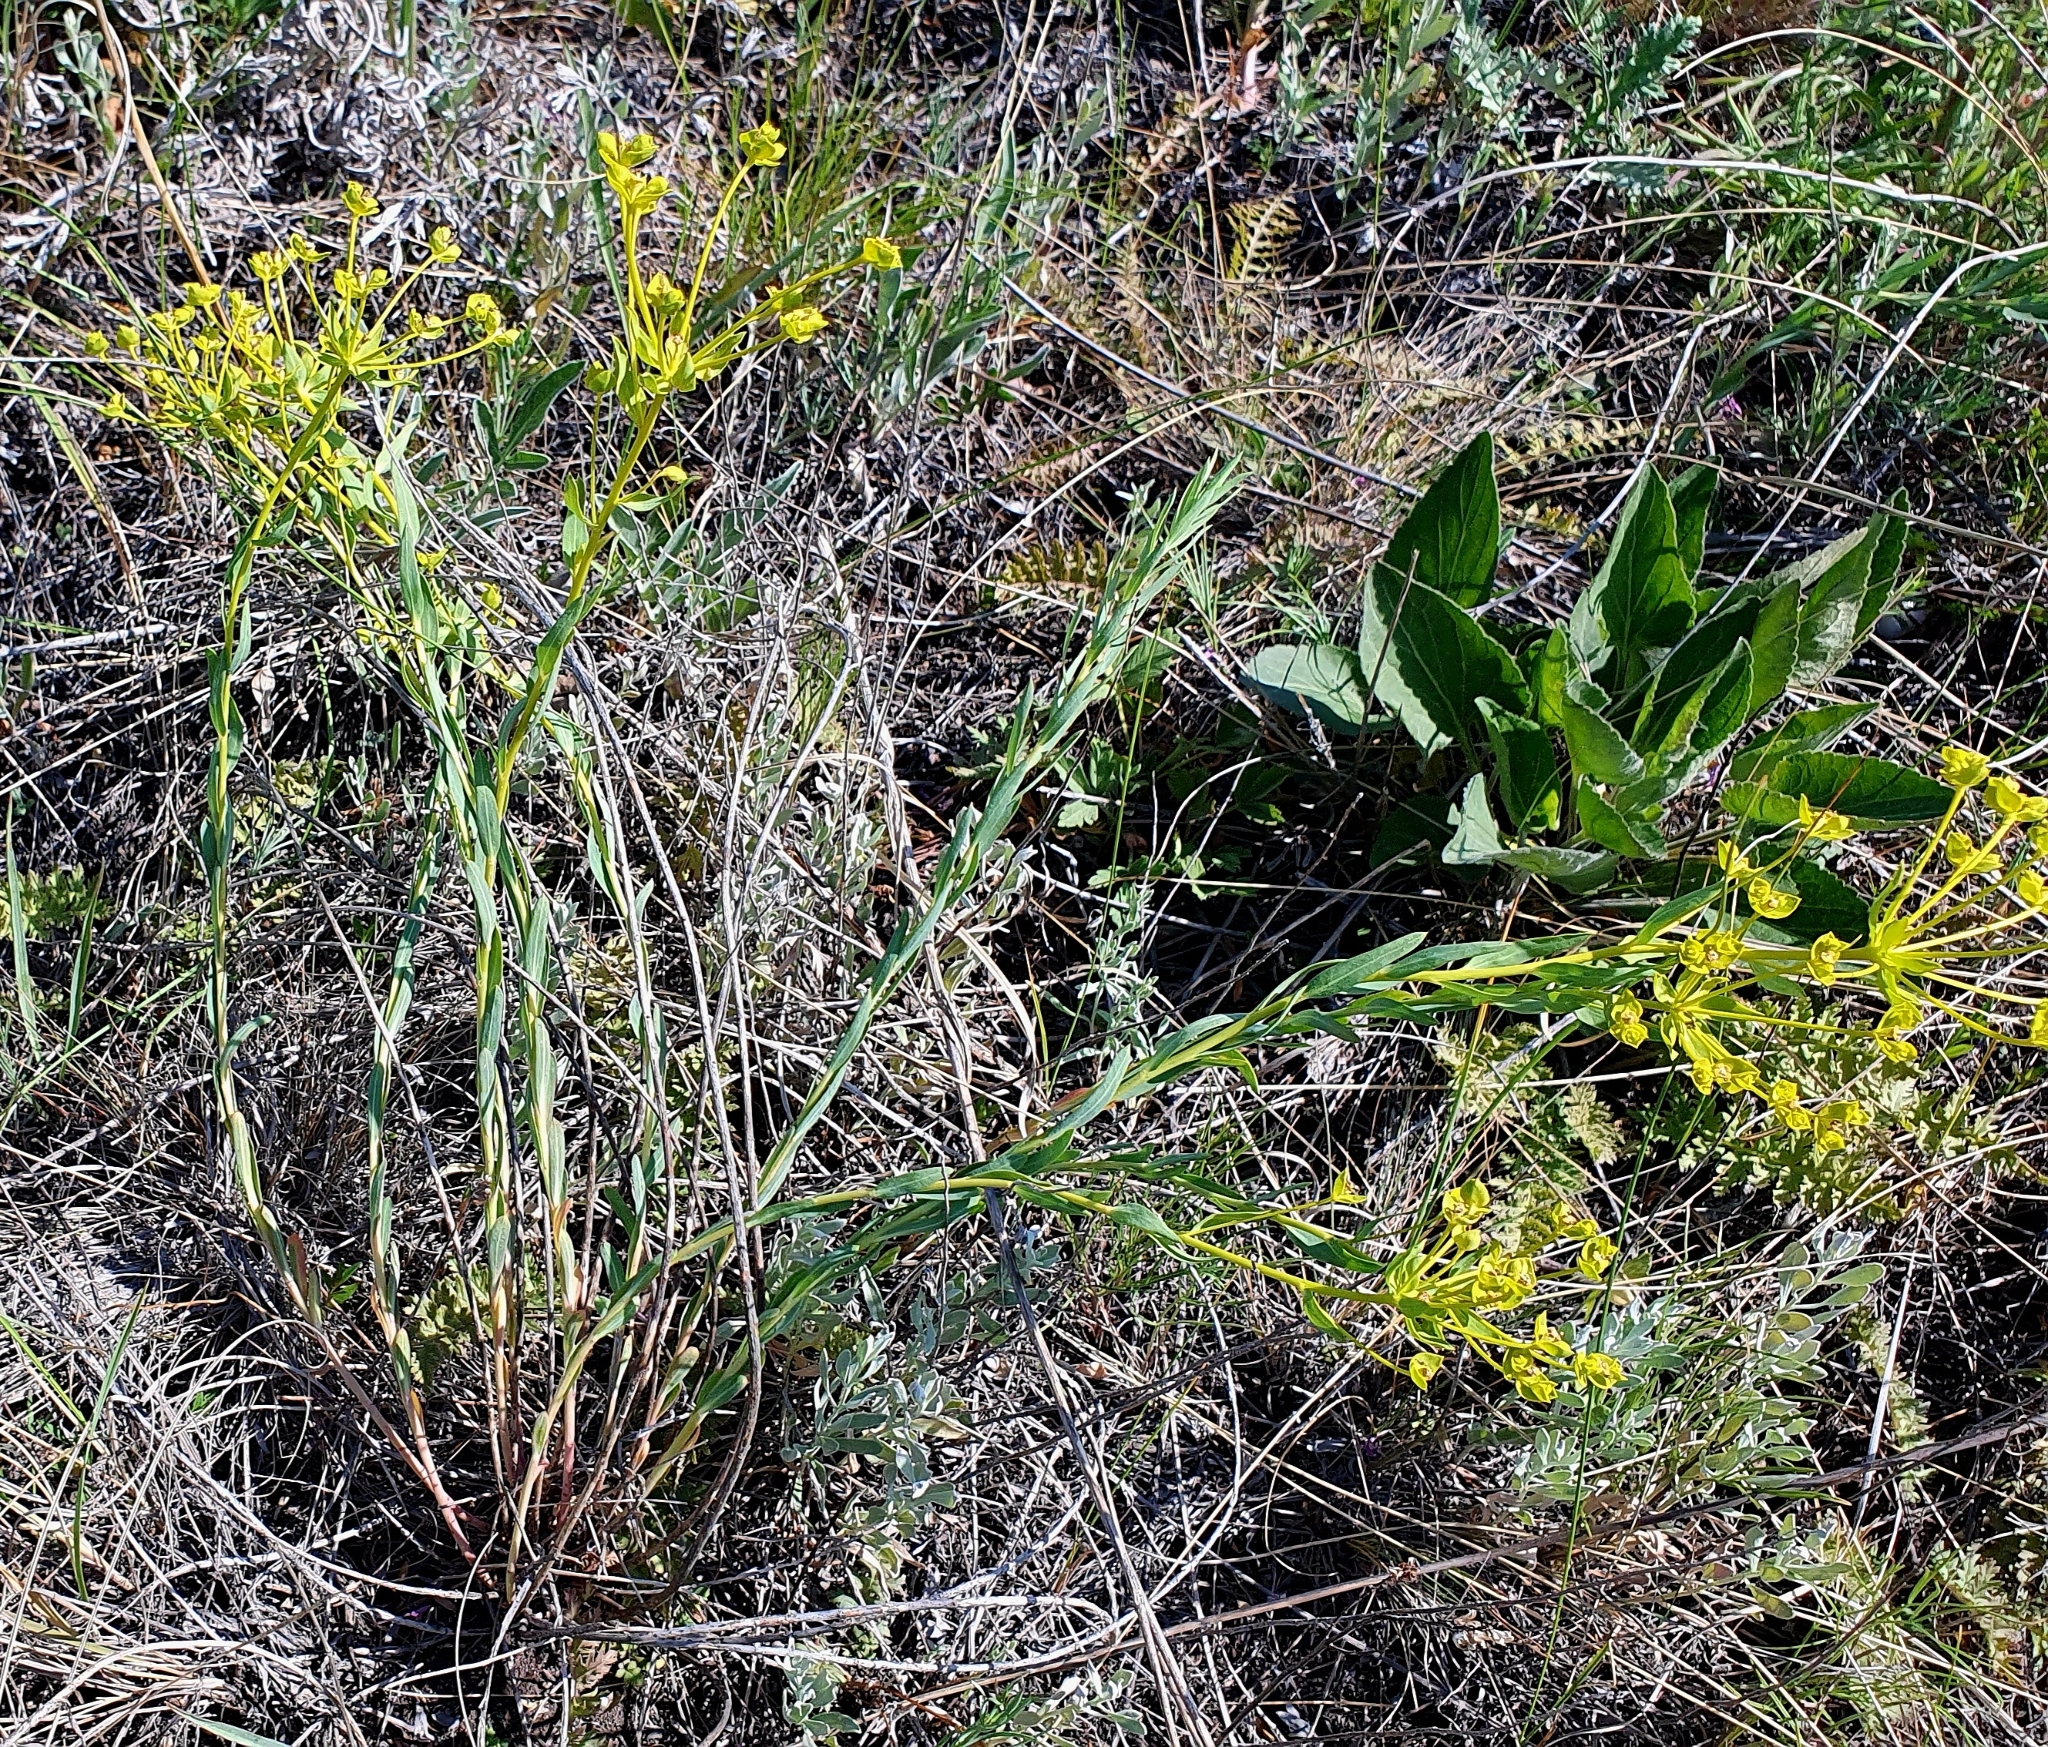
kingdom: Plantae
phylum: Tracheophyta
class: Magnoliopsida
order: Malpighiales
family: Euphorbiaceae
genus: Euphorbia
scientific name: Euphorbia seguieriana
